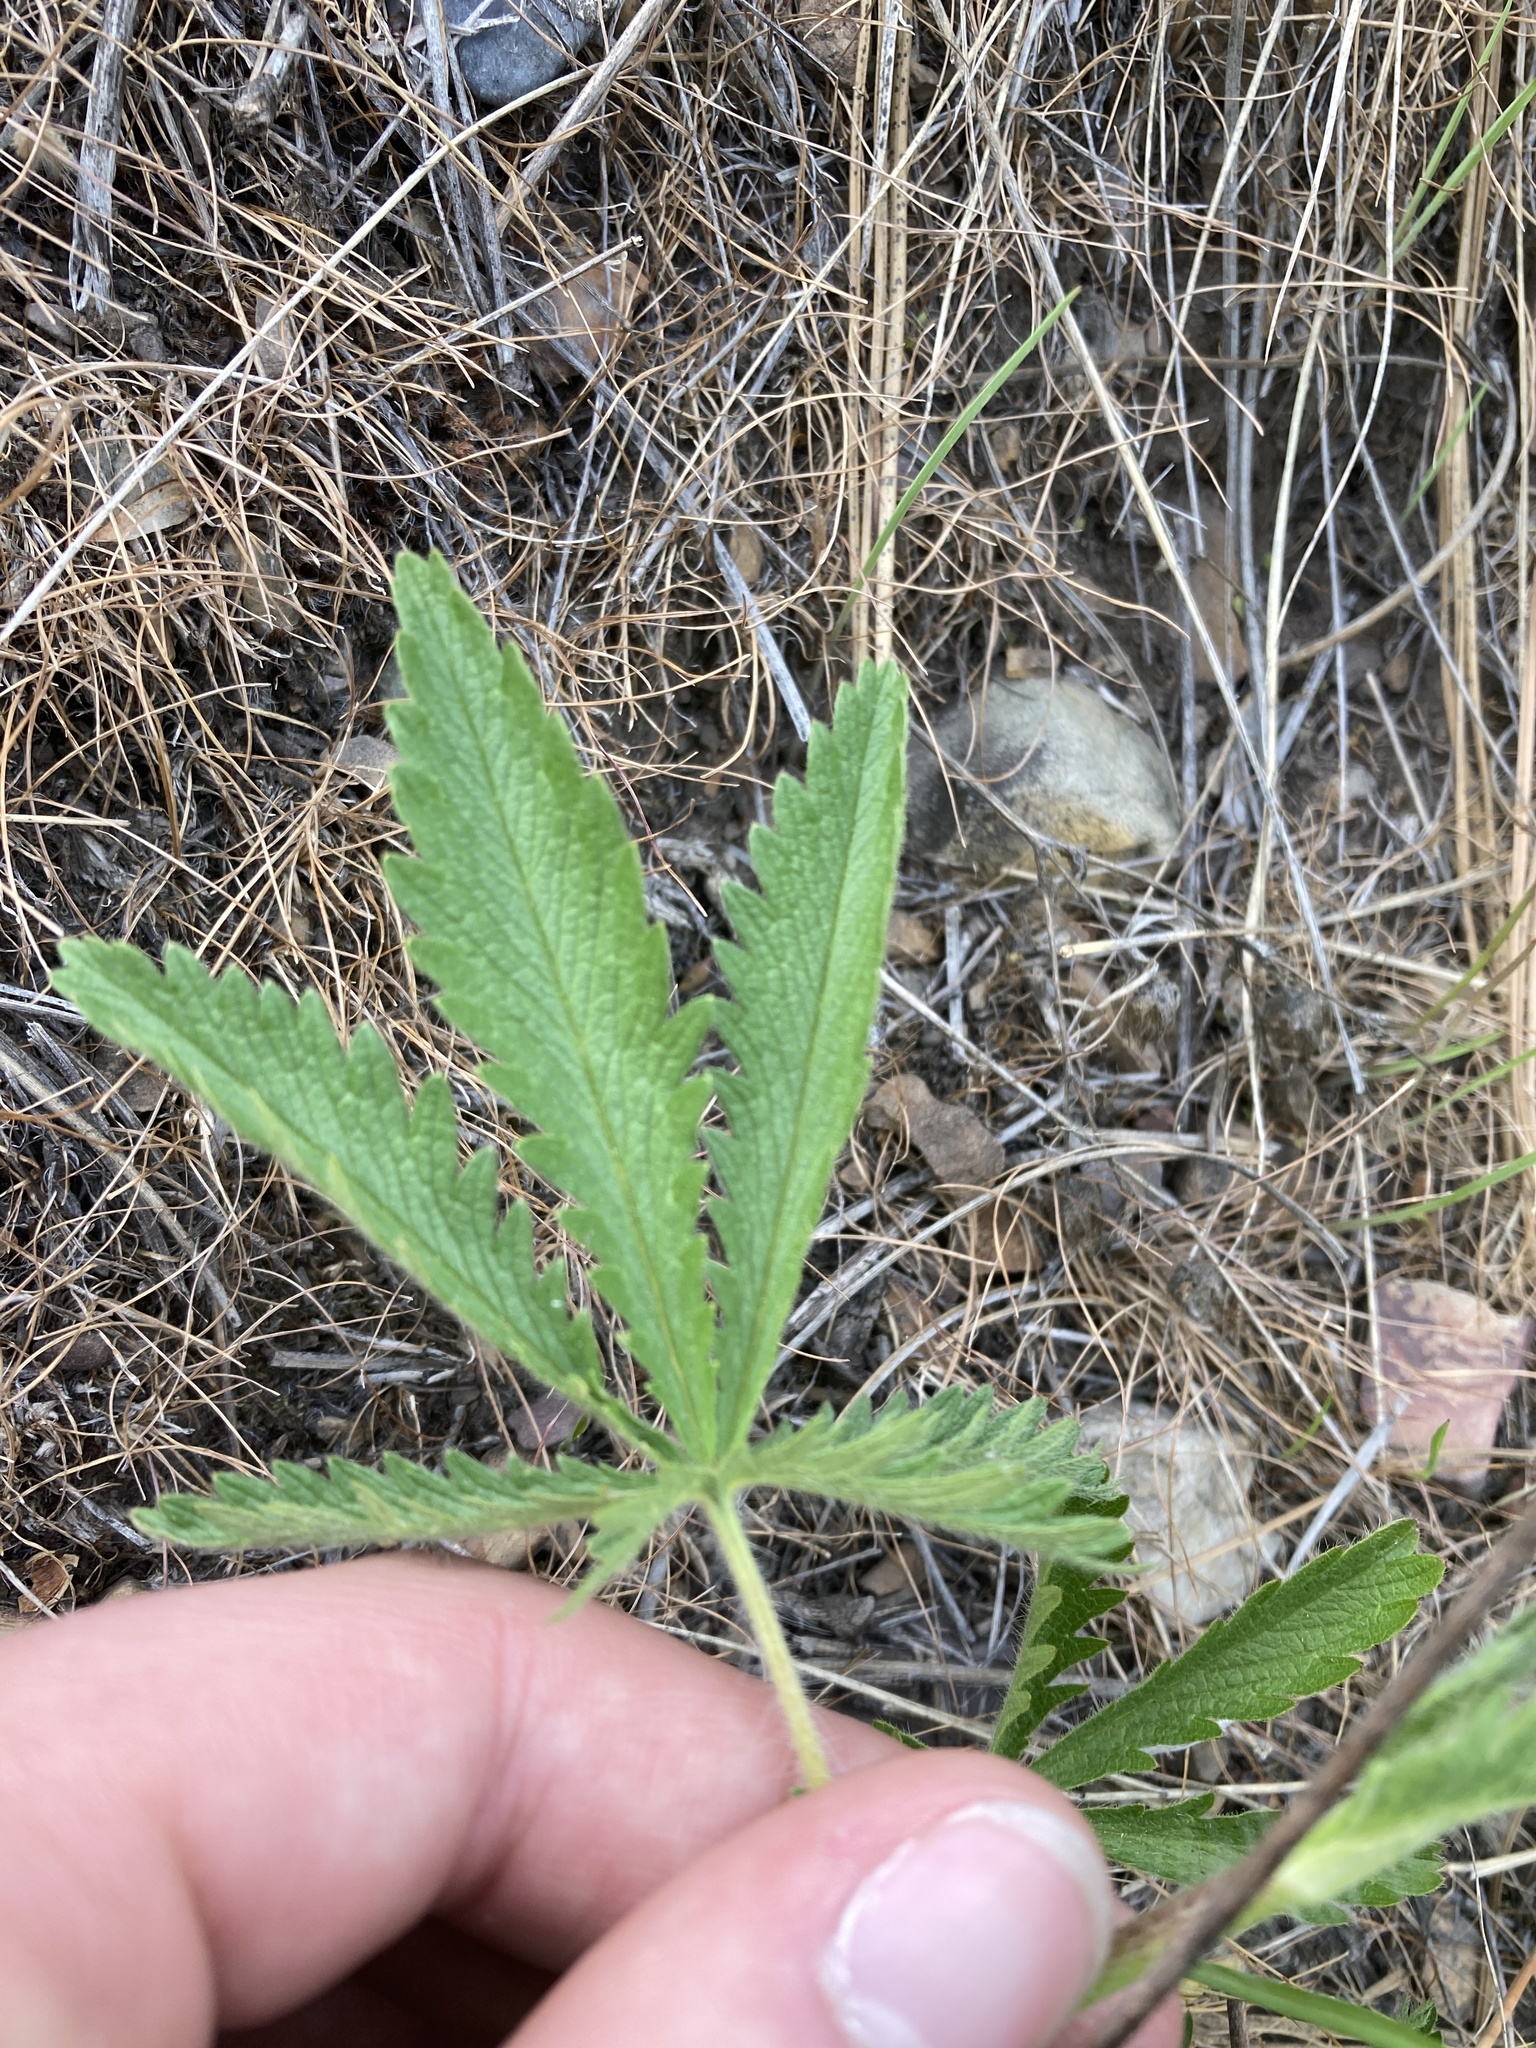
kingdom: Plantae
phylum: Tracheophyta
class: Magnoliopsida
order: Rosales
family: Rosaceae
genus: Potentilla
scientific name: Potentilla recta
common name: Sulphur cinquefoil
